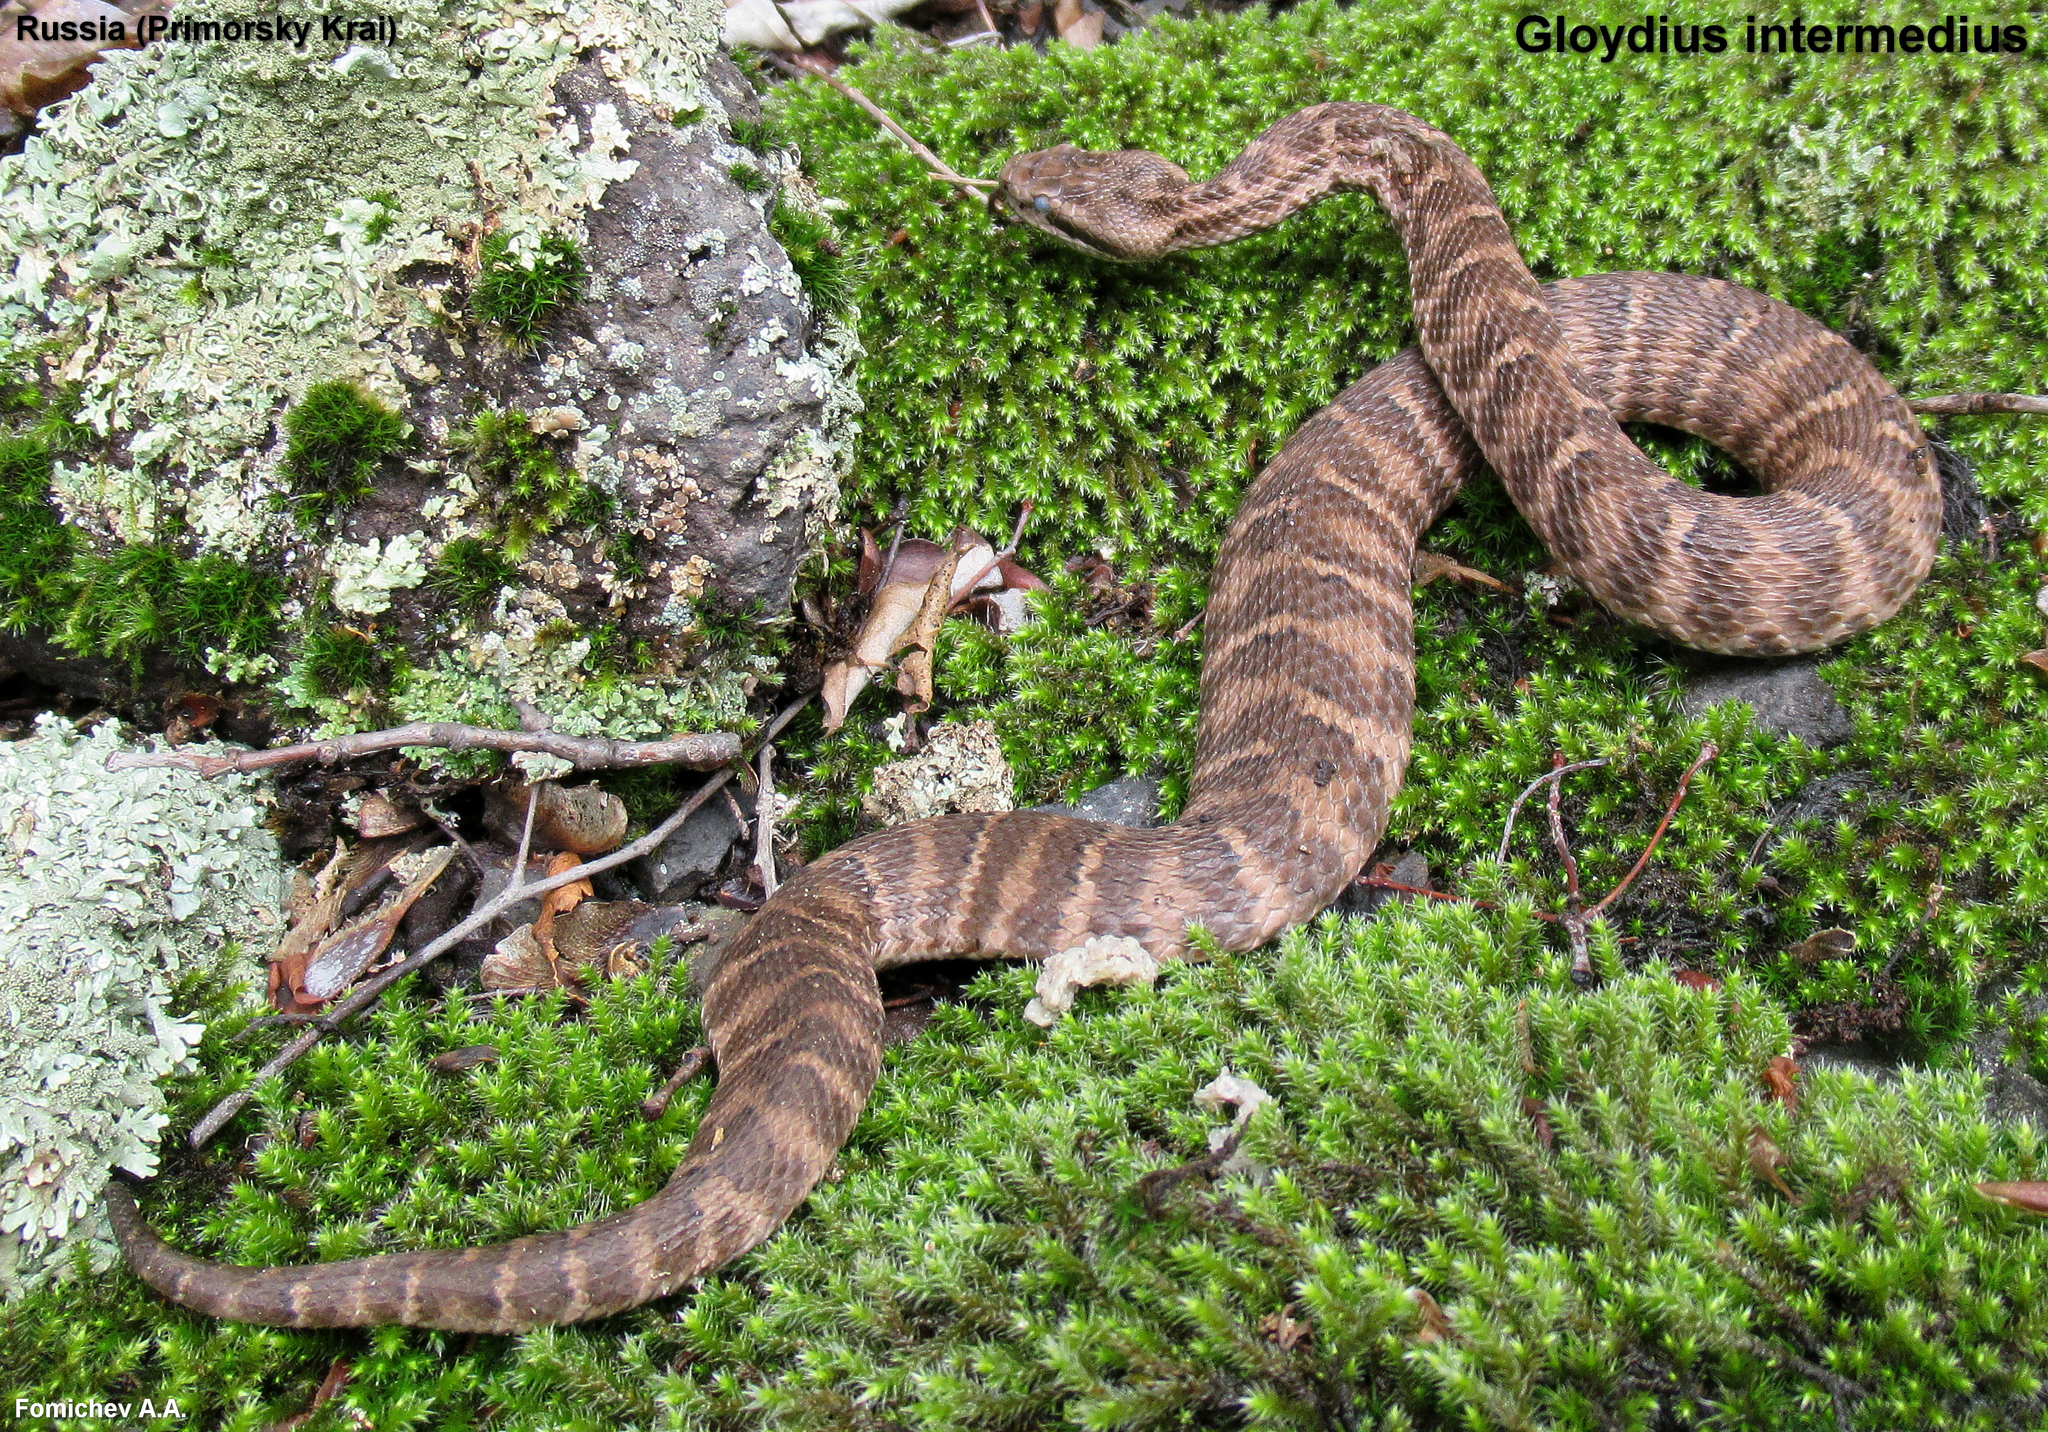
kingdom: Animalia
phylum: Chordata
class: Squamata
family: Viperidae
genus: Gloydius
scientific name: Gloydius intermedius
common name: Central asian pit viper
